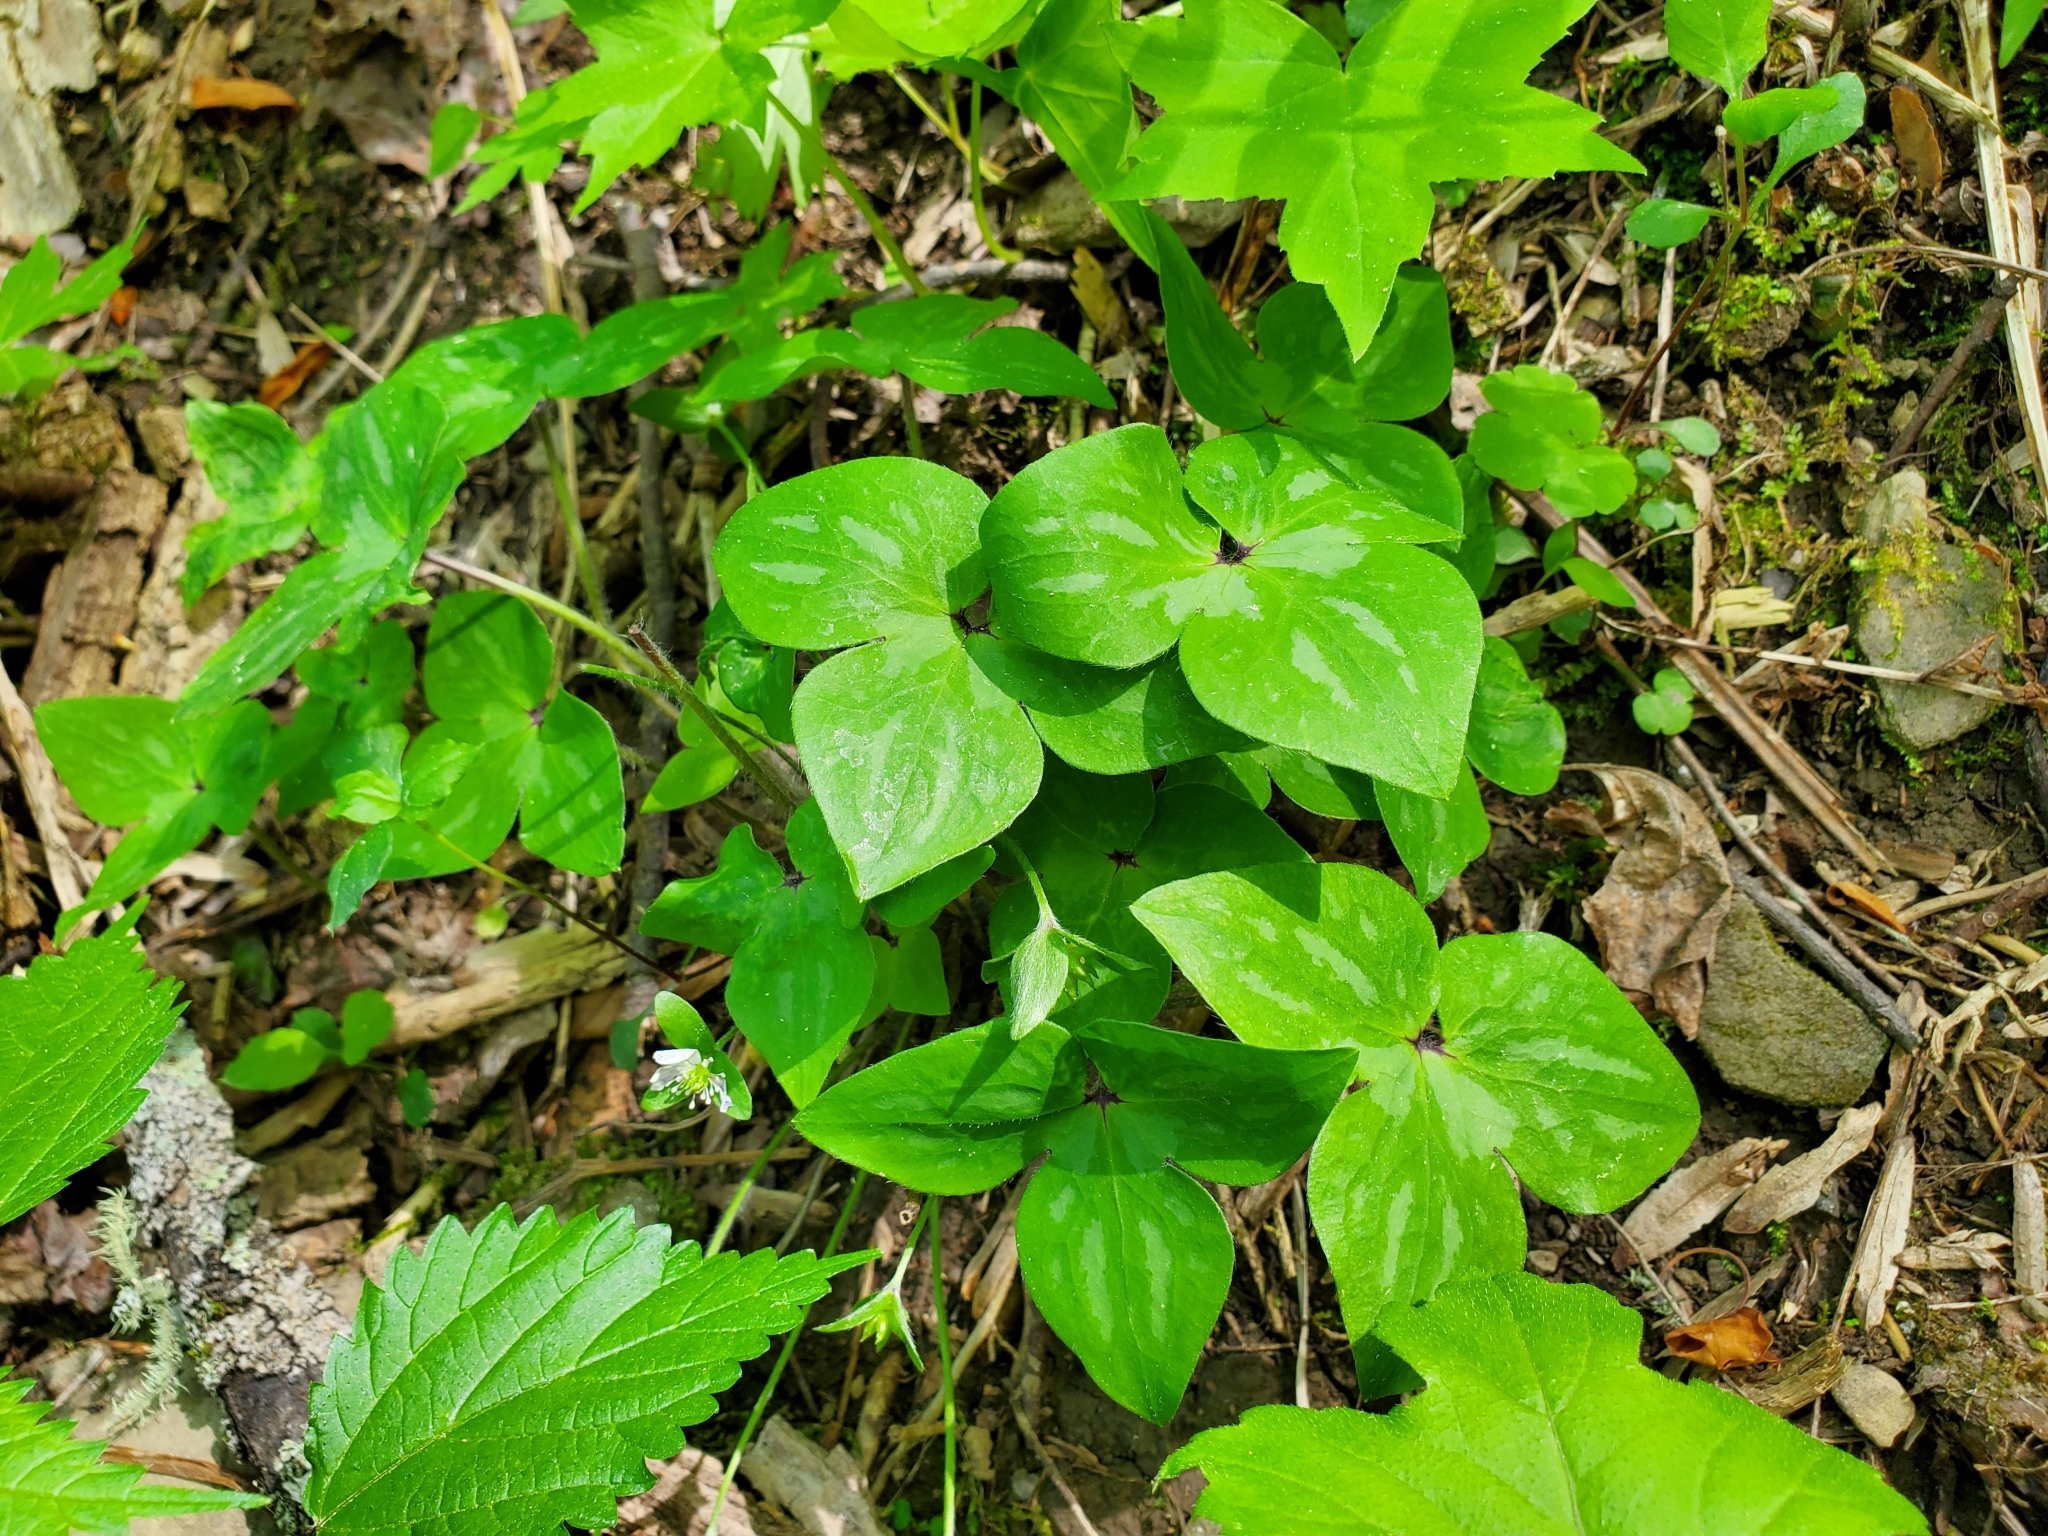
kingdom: Plantae
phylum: Tracheophyta
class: Magnoliopsida
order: Ranunculales
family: Ranunculaceae
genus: Hepatica
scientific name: Hepatica acutiloba
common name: Sharp-lobed hepatica
